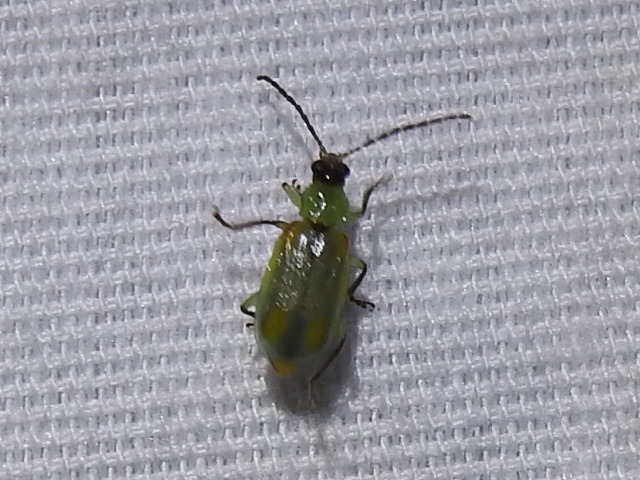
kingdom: Animalia
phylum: Arthropoda
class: Insecta
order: Coleoptera
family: Chrysomelidae
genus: Diabrotica
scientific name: Diabrotica longicornis
